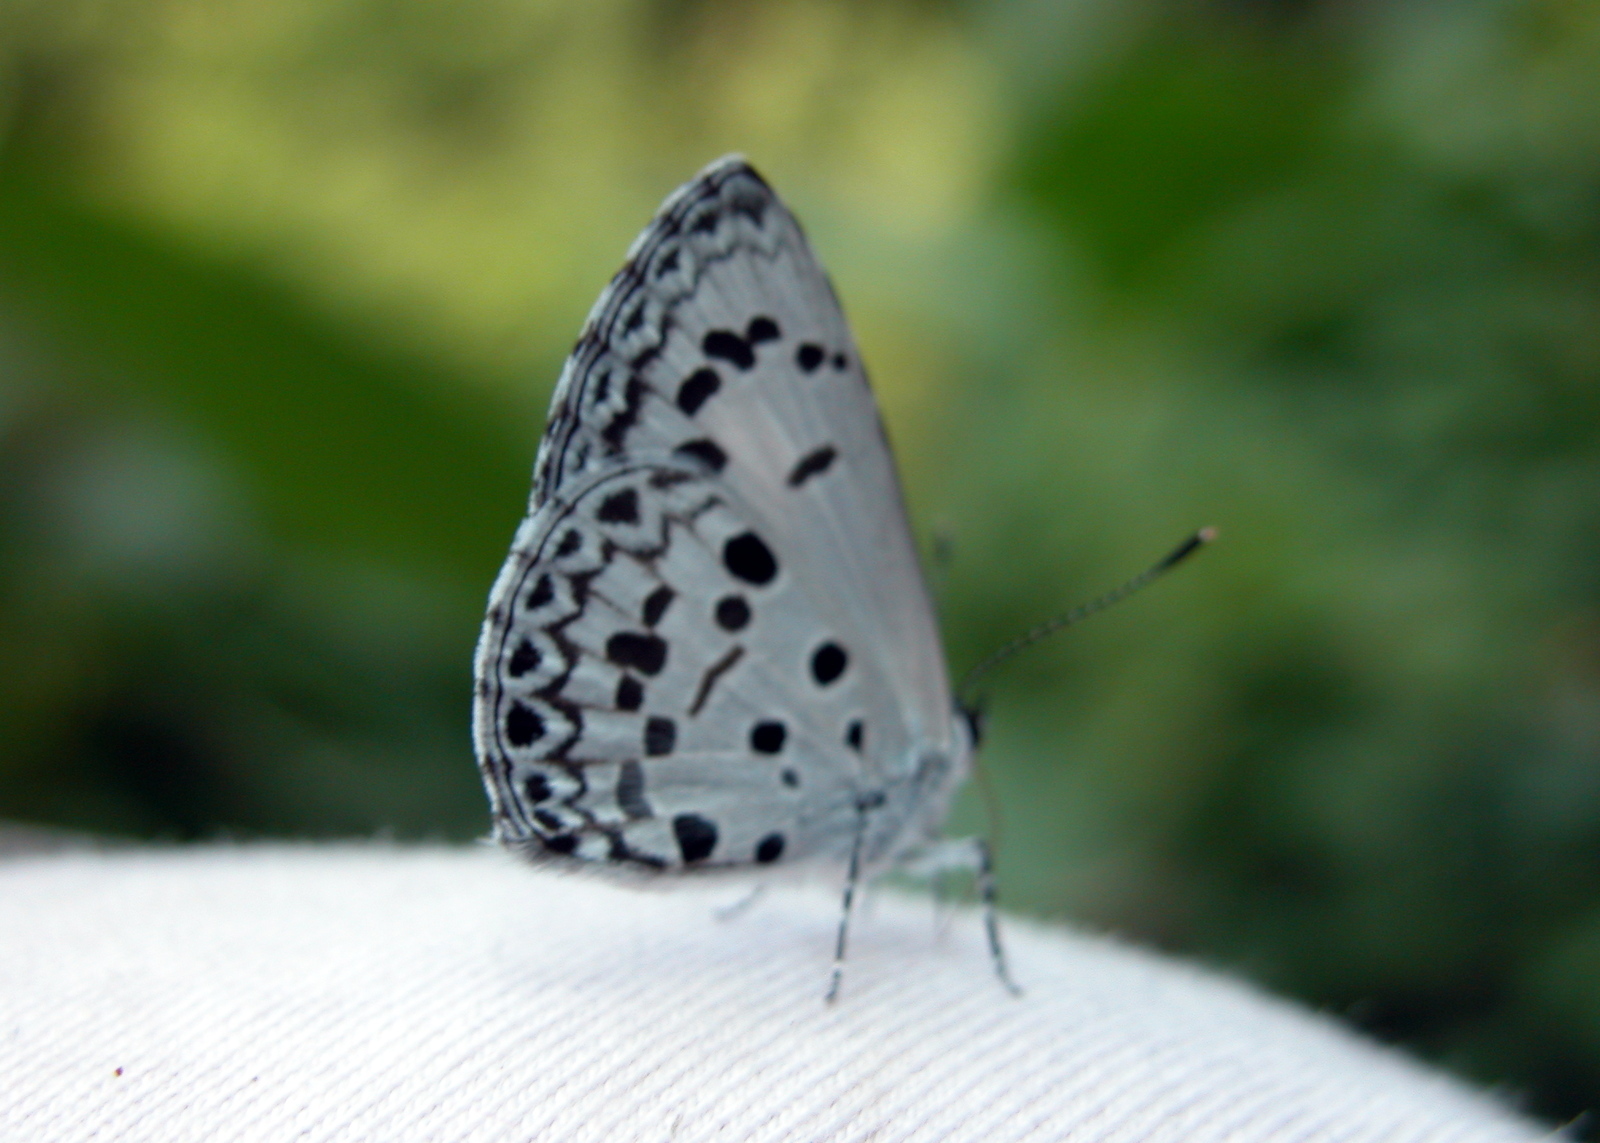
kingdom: Animalia
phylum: Arthropoda
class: Insecta
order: Lepidoptera
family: Lycaenidae
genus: Acytolepis
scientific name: Acytolepis puspa
